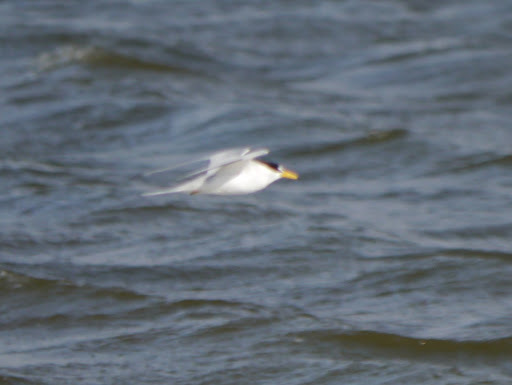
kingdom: Animalia
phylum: Chordata
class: Aves
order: Charadriiformes
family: Laridae
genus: Sternula
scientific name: Sternula antillarum
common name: Least tern
